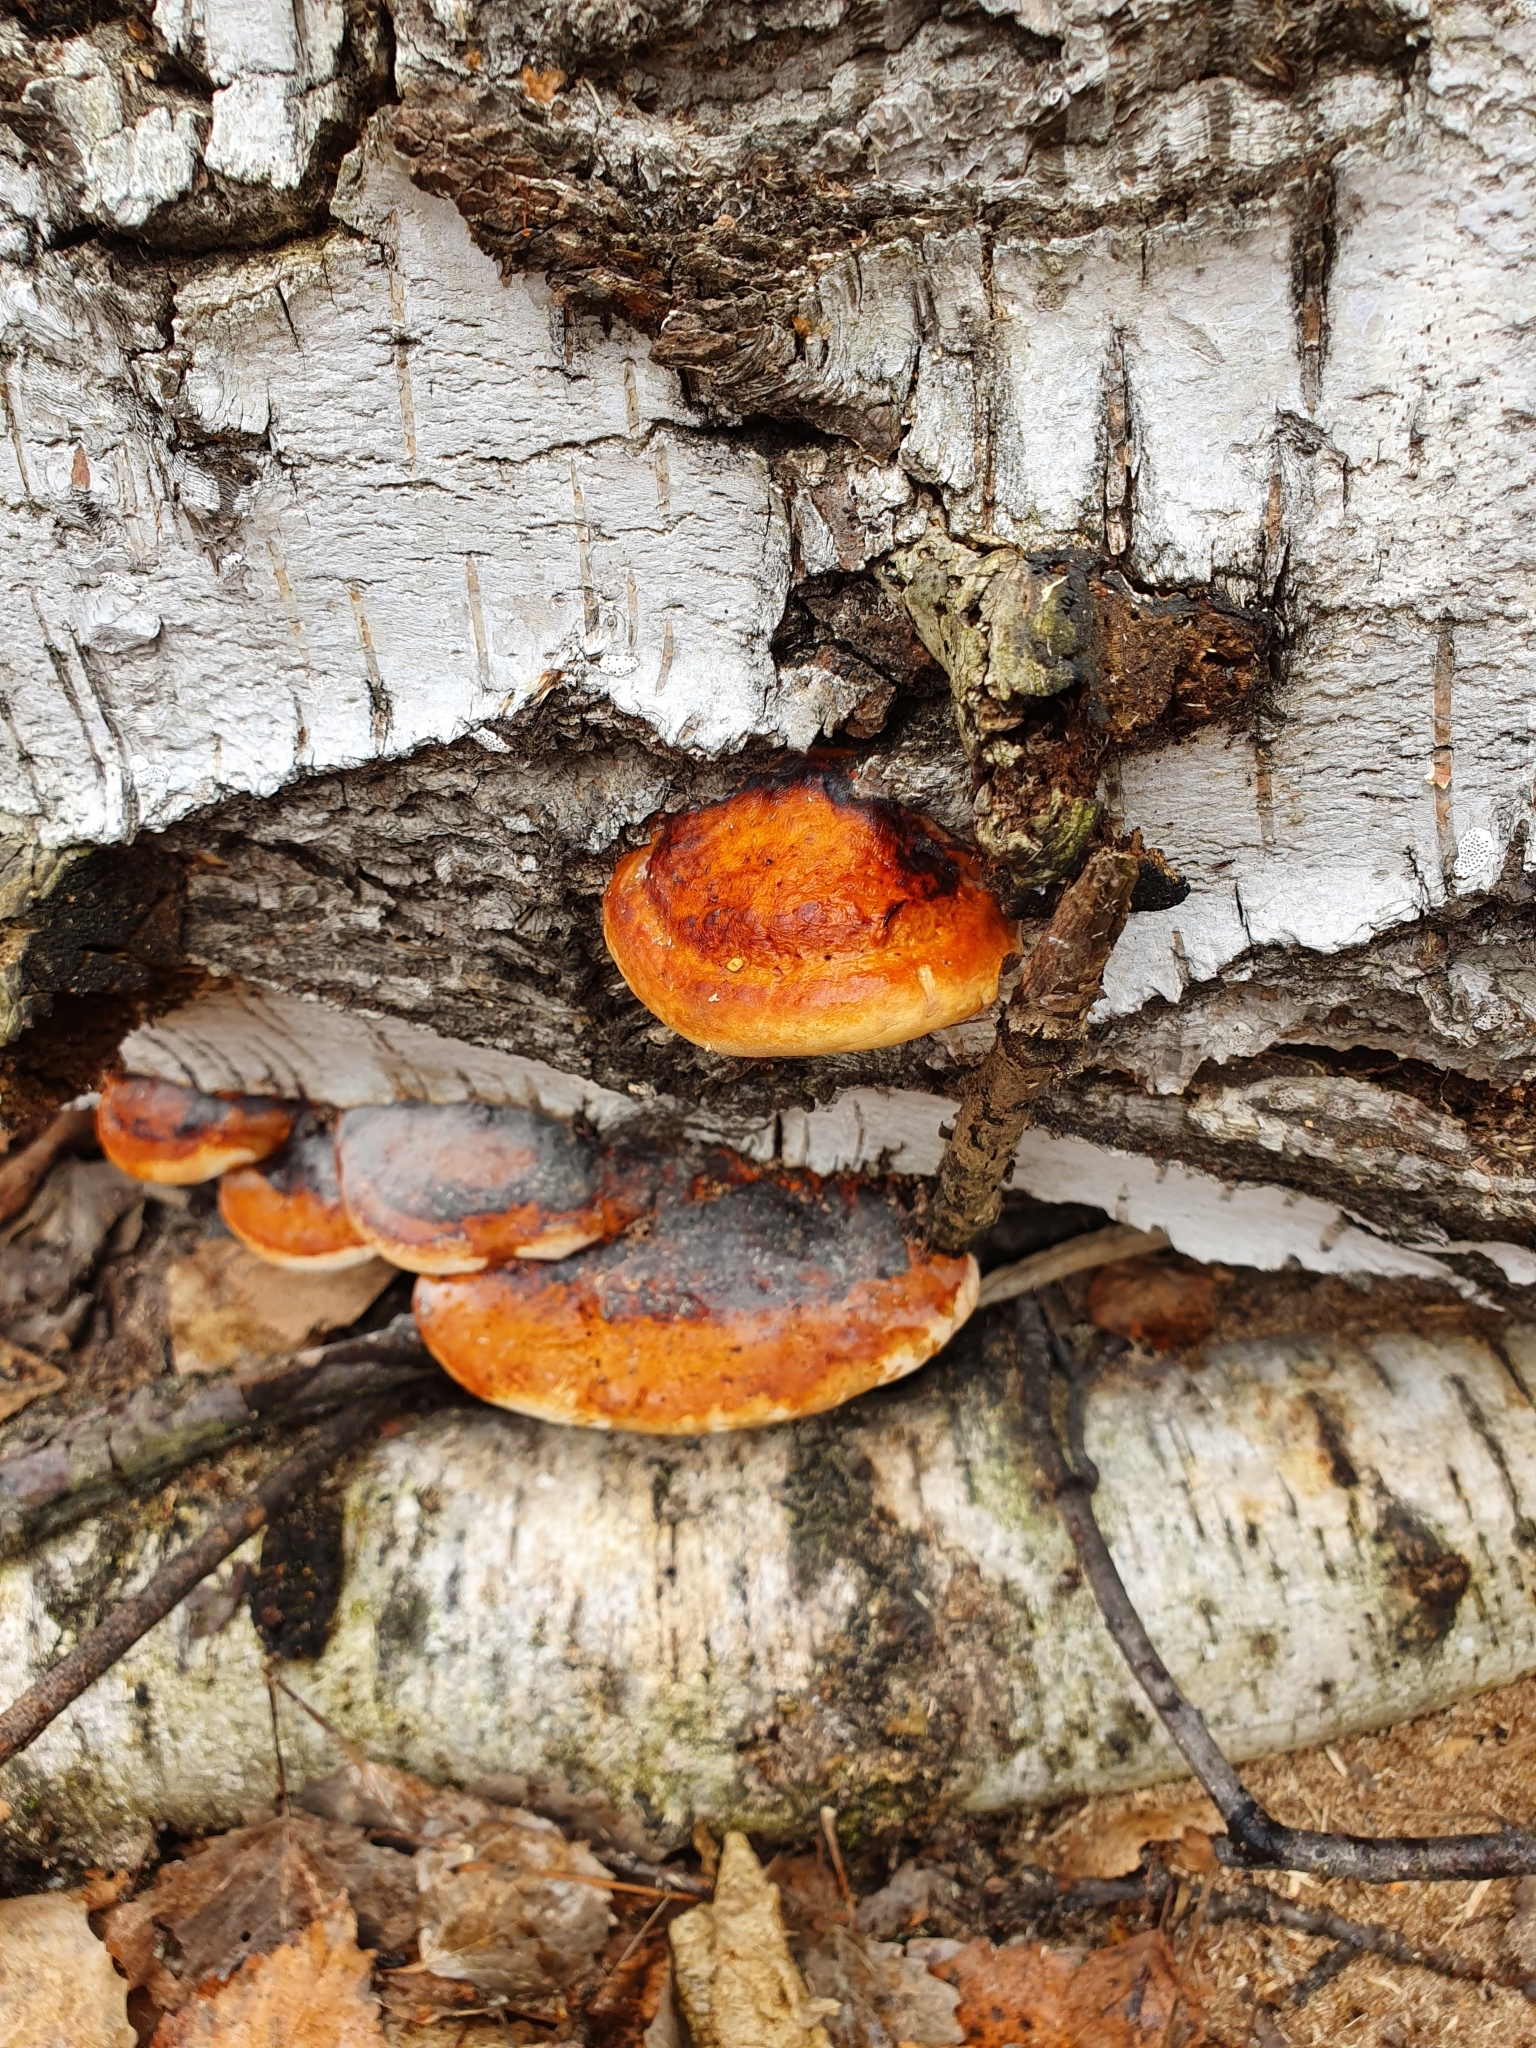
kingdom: Fungi
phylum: Basidiomycota
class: Agaricomycetes
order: Polyporales
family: Fomitopsidaceae
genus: Fomitopsis
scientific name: Fomitopsis pinicola
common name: Red-belted bracket
